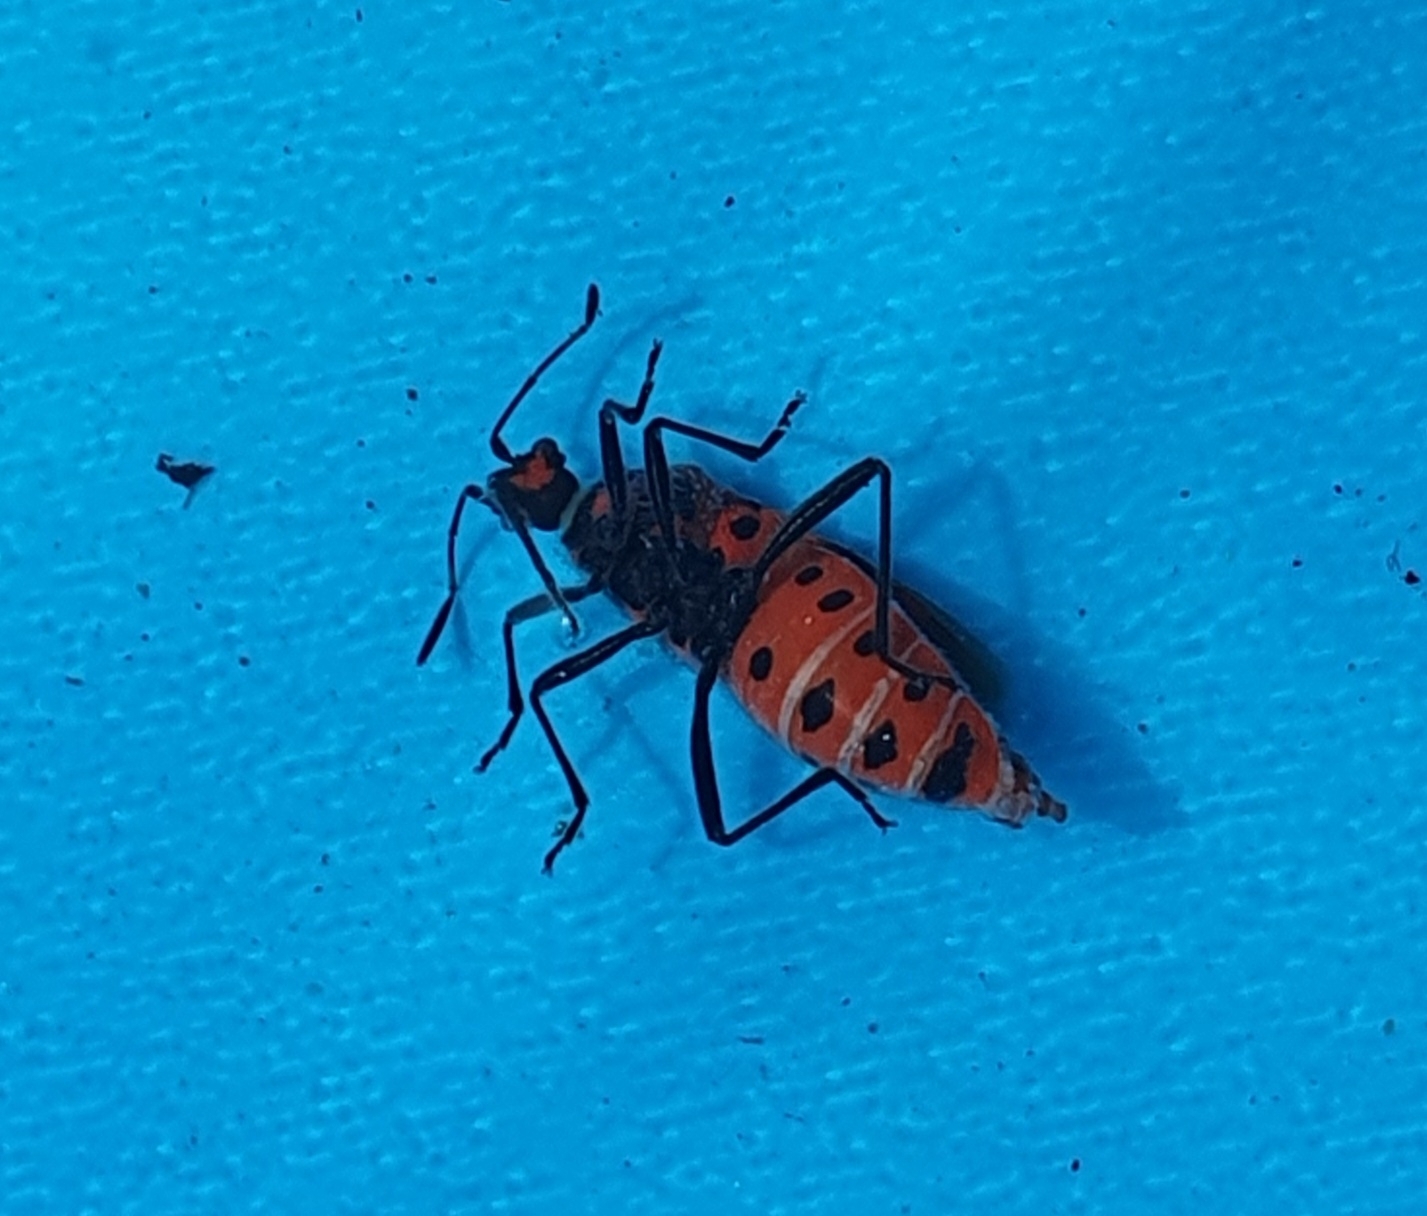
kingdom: Animalia
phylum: Arthropoda
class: Insecta
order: Hemiptera
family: Rhopalidae
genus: Corizus
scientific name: Corizus hyoscyami
